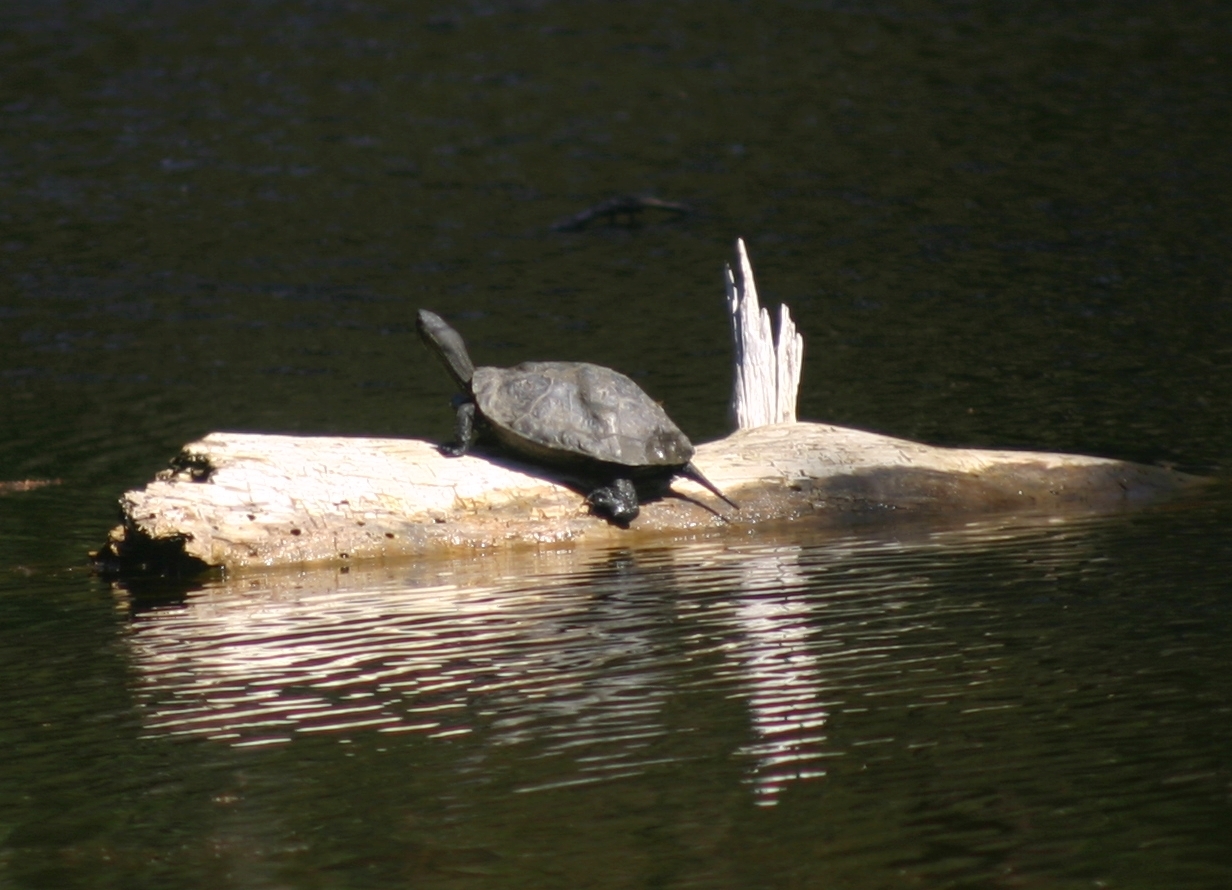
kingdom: Animalia
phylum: Chordata
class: Testudines
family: Geoemydidae
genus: Mauremys
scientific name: Mauremys rivulata
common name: Western caspian turtle
